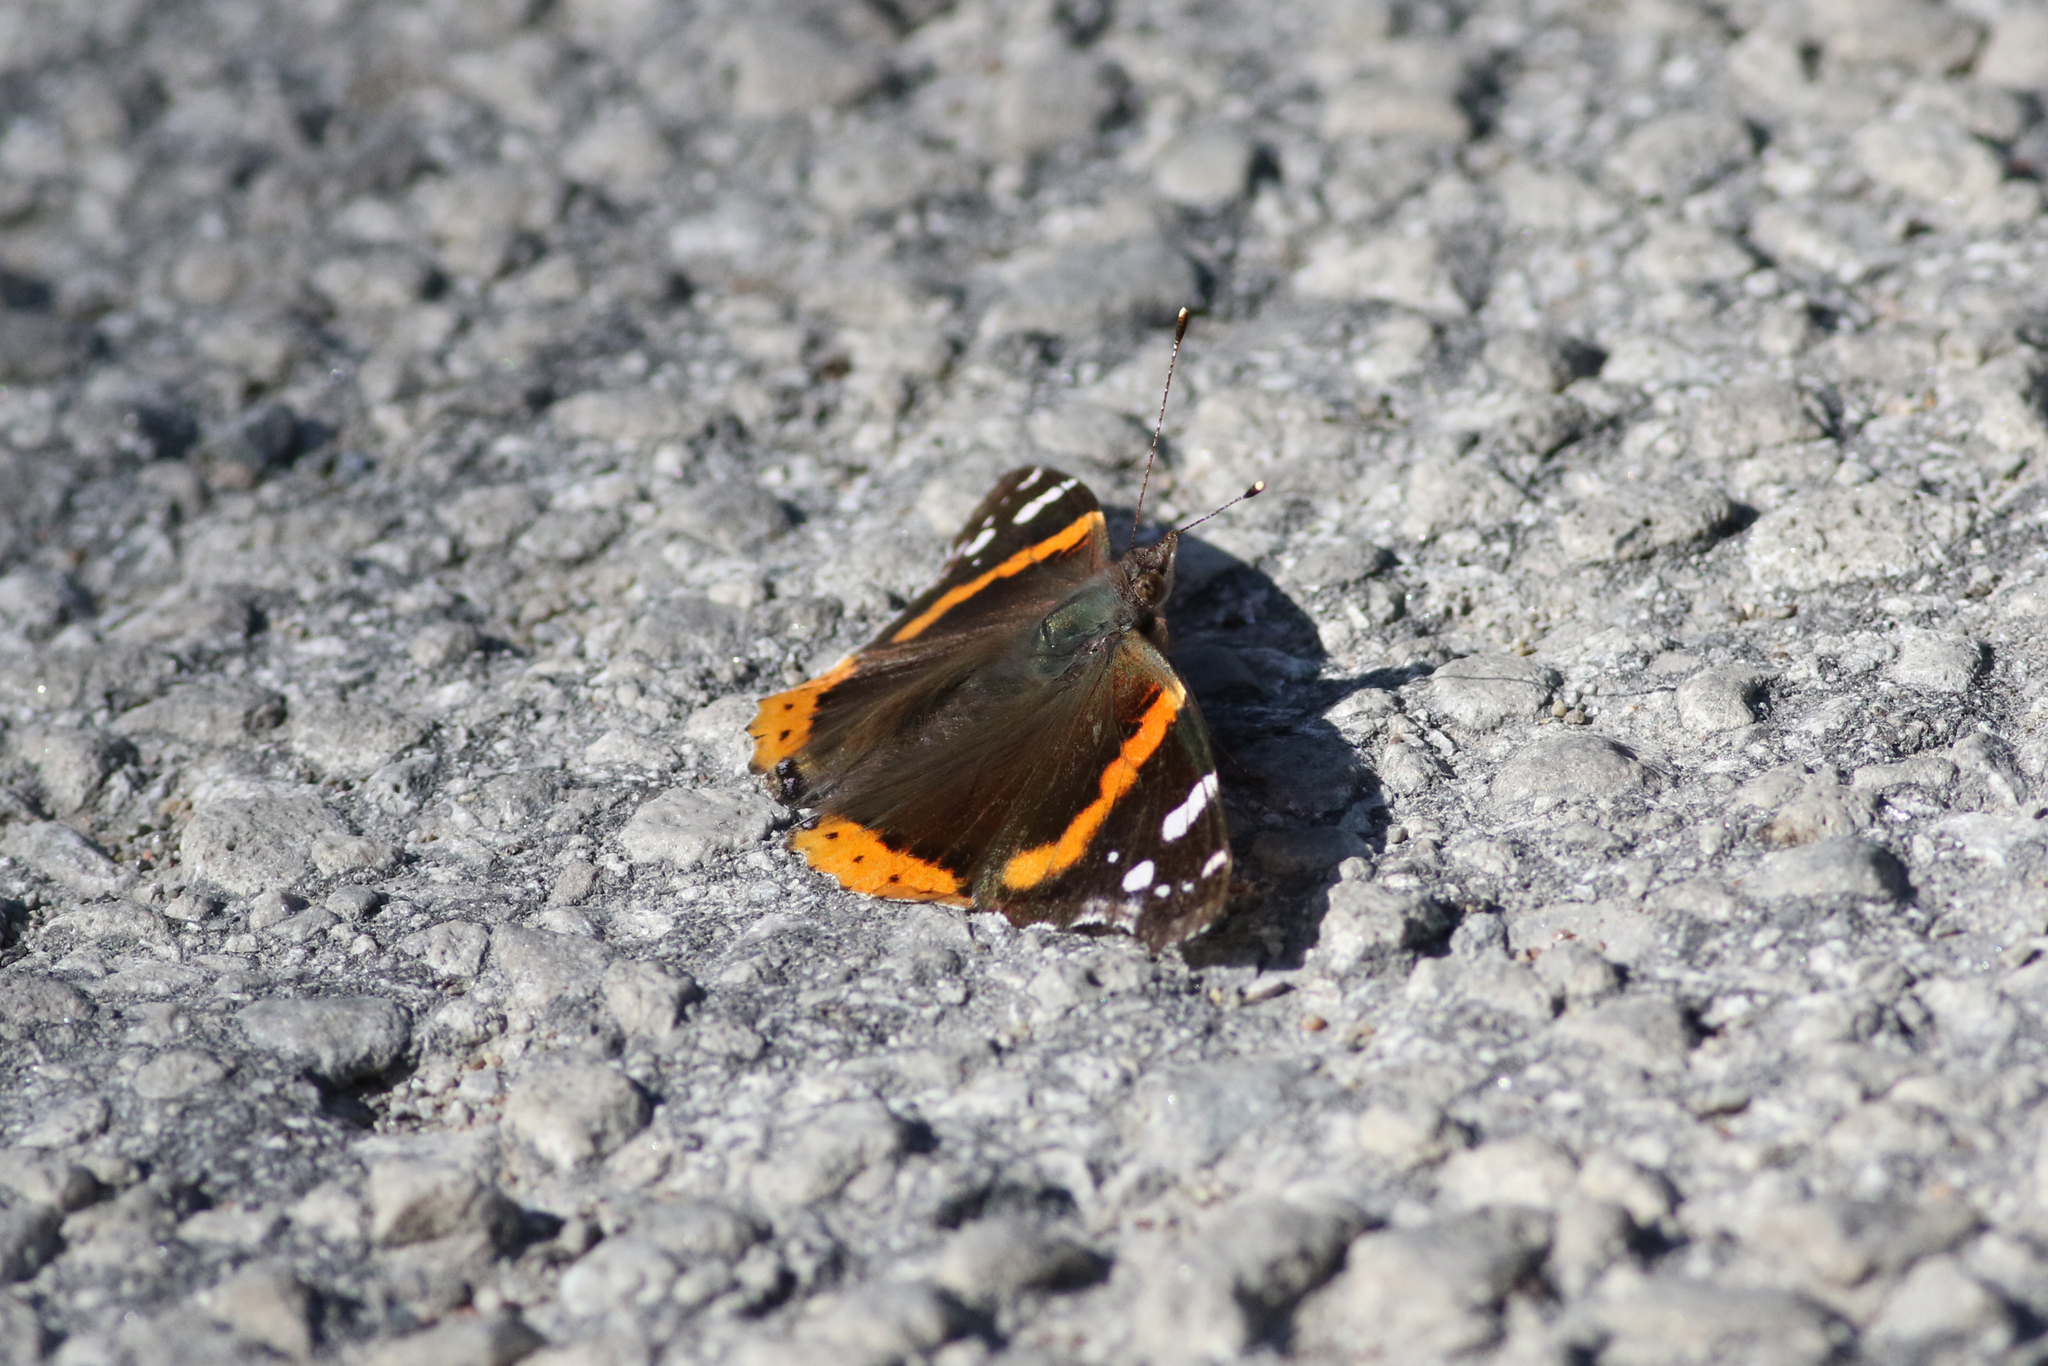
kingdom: Animalia
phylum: Arthropoda
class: Insecta
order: Lepidoptera
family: Nymphalidae
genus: Vanessa
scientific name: Vanessa atalanta
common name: Red admiral
